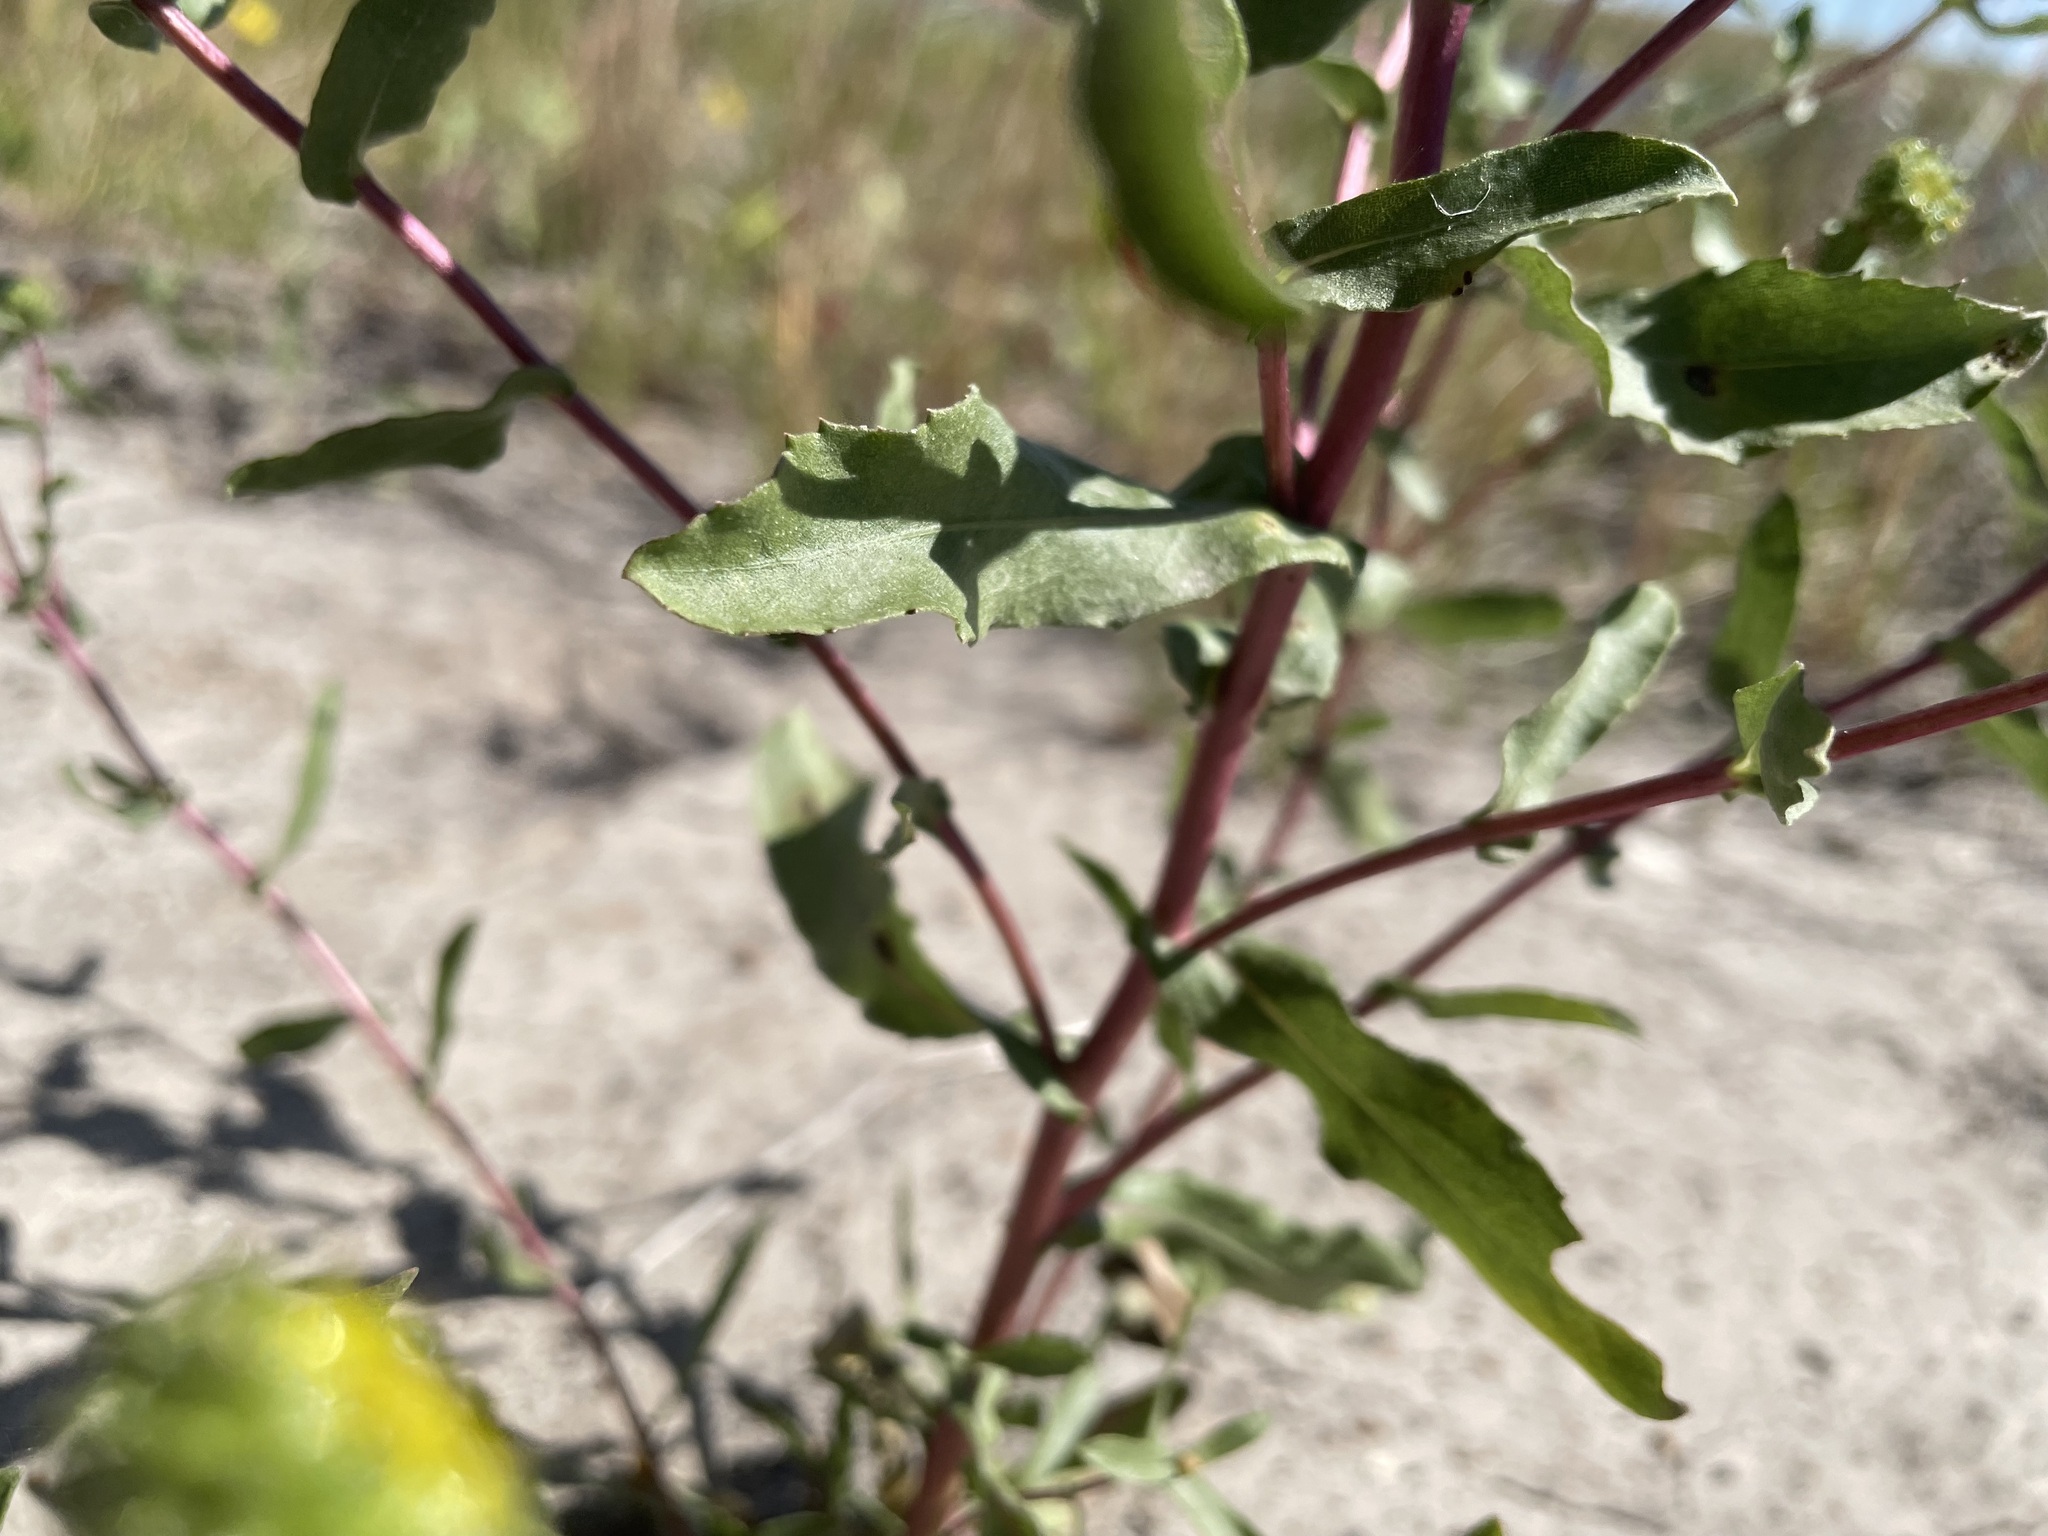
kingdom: Plantae
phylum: Tracheophyta
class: Magnoliopsida
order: Asterales
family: Asteraceae
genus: Grindelia
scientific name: Grindelia squarrosa
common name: Curly-cup gumweed
